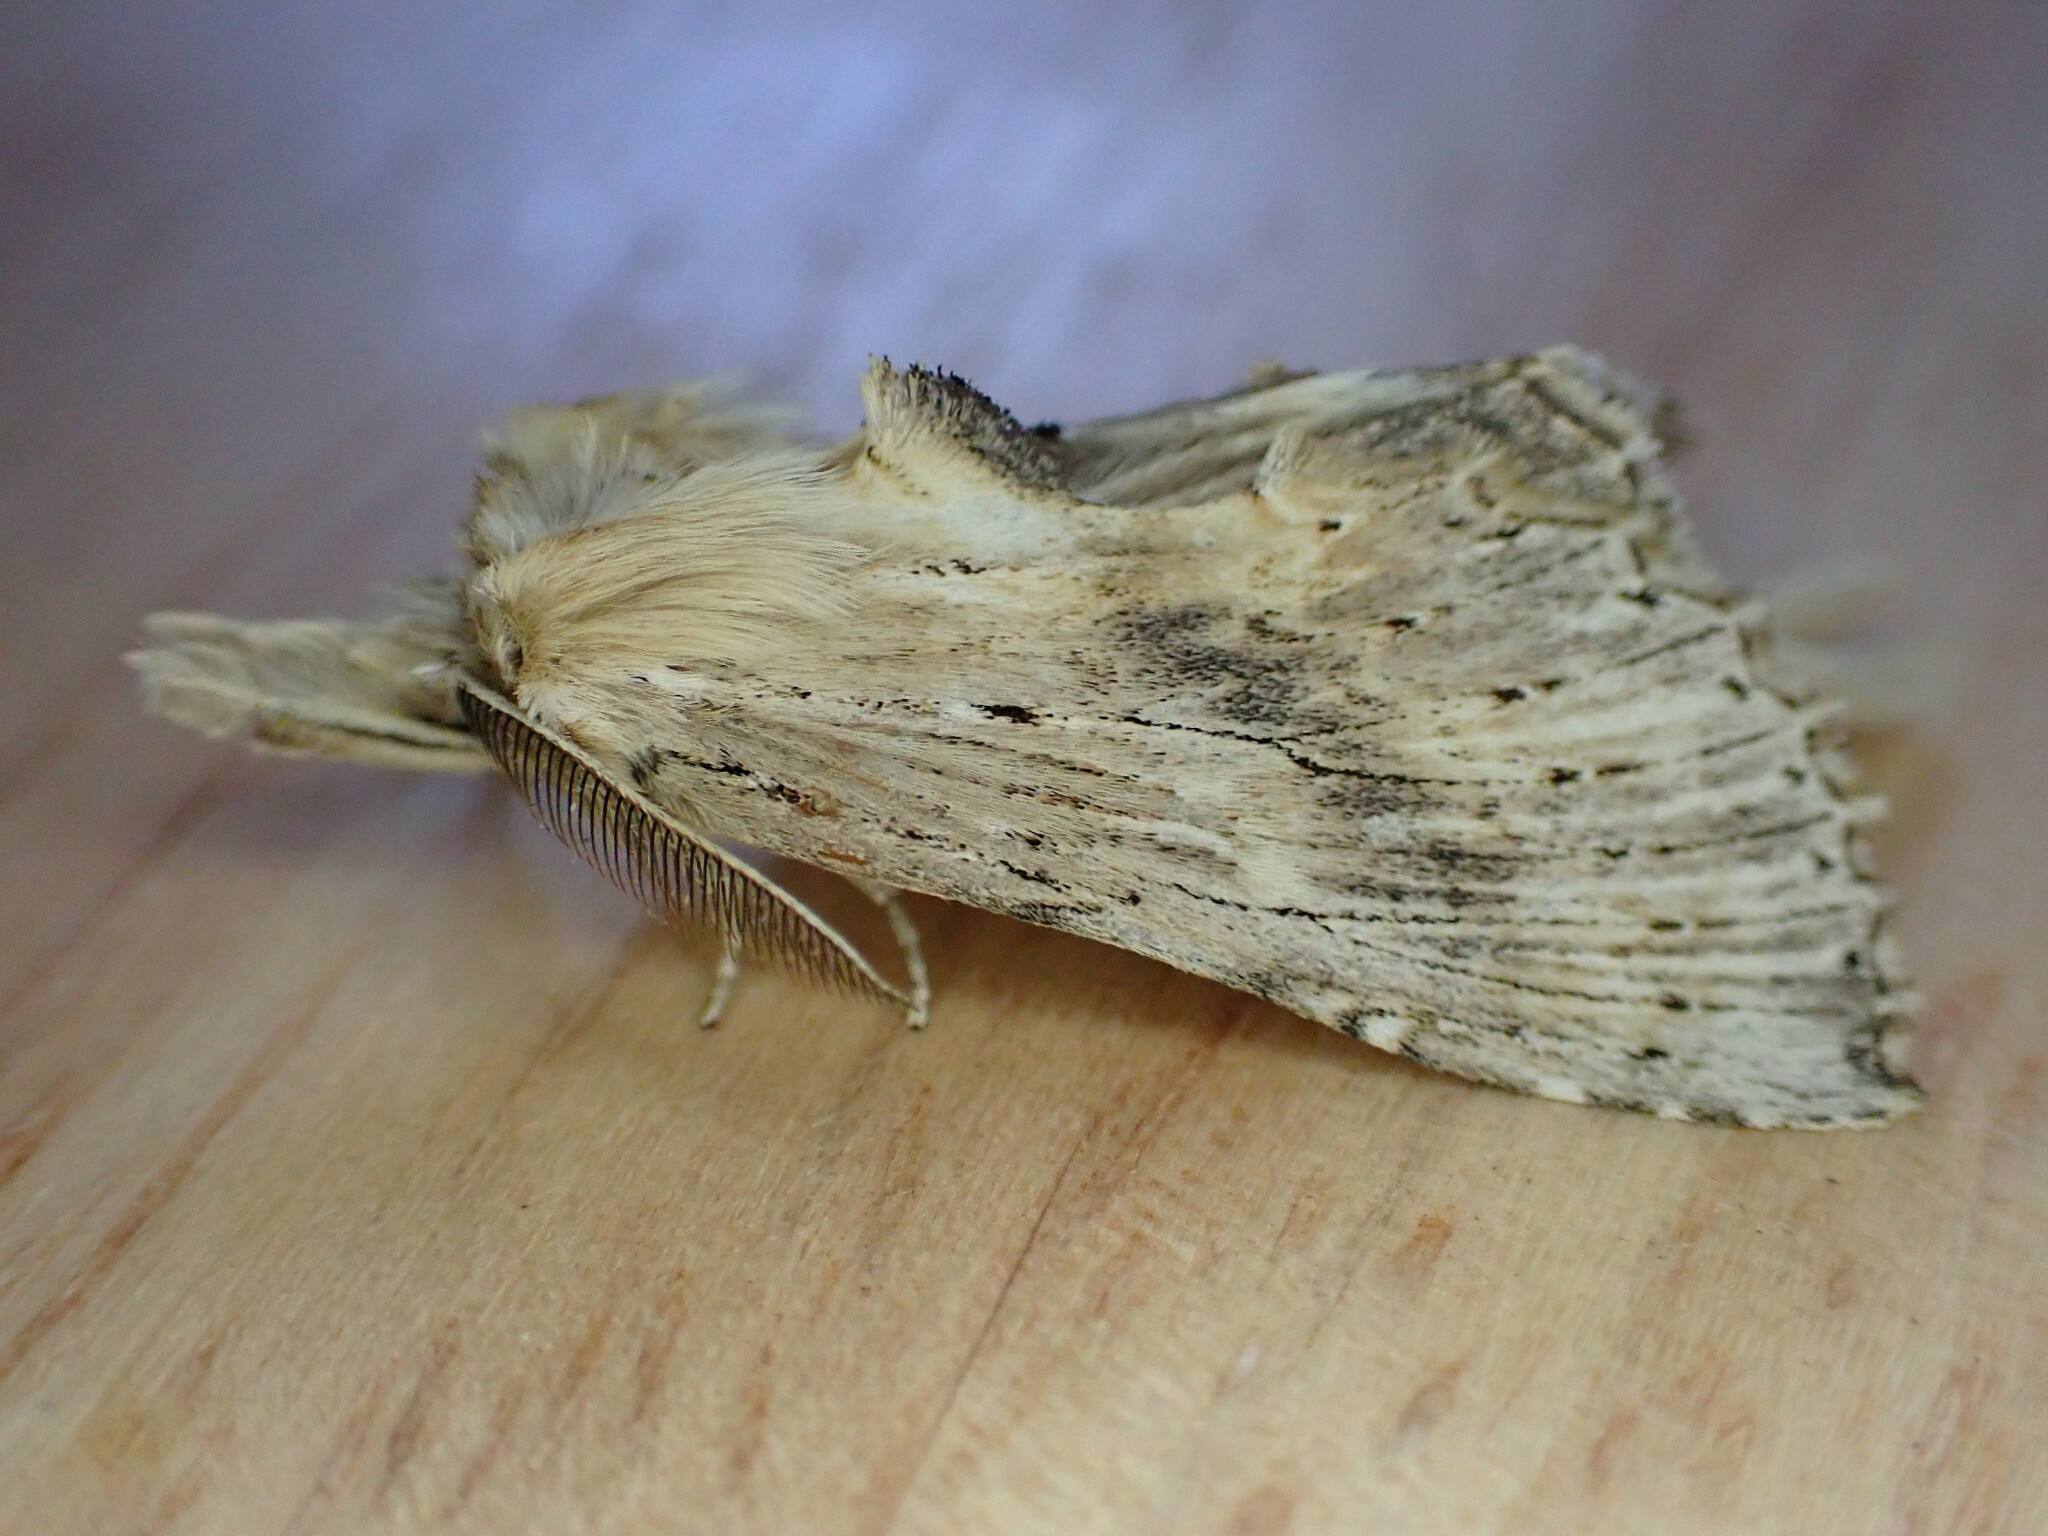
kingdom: Animalia
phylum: Arthropoda
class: Insecta
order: Lepidoptera
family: Notodontidae
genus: Pterostoma
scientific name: Pterostoma palpina
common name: Pale prominent
